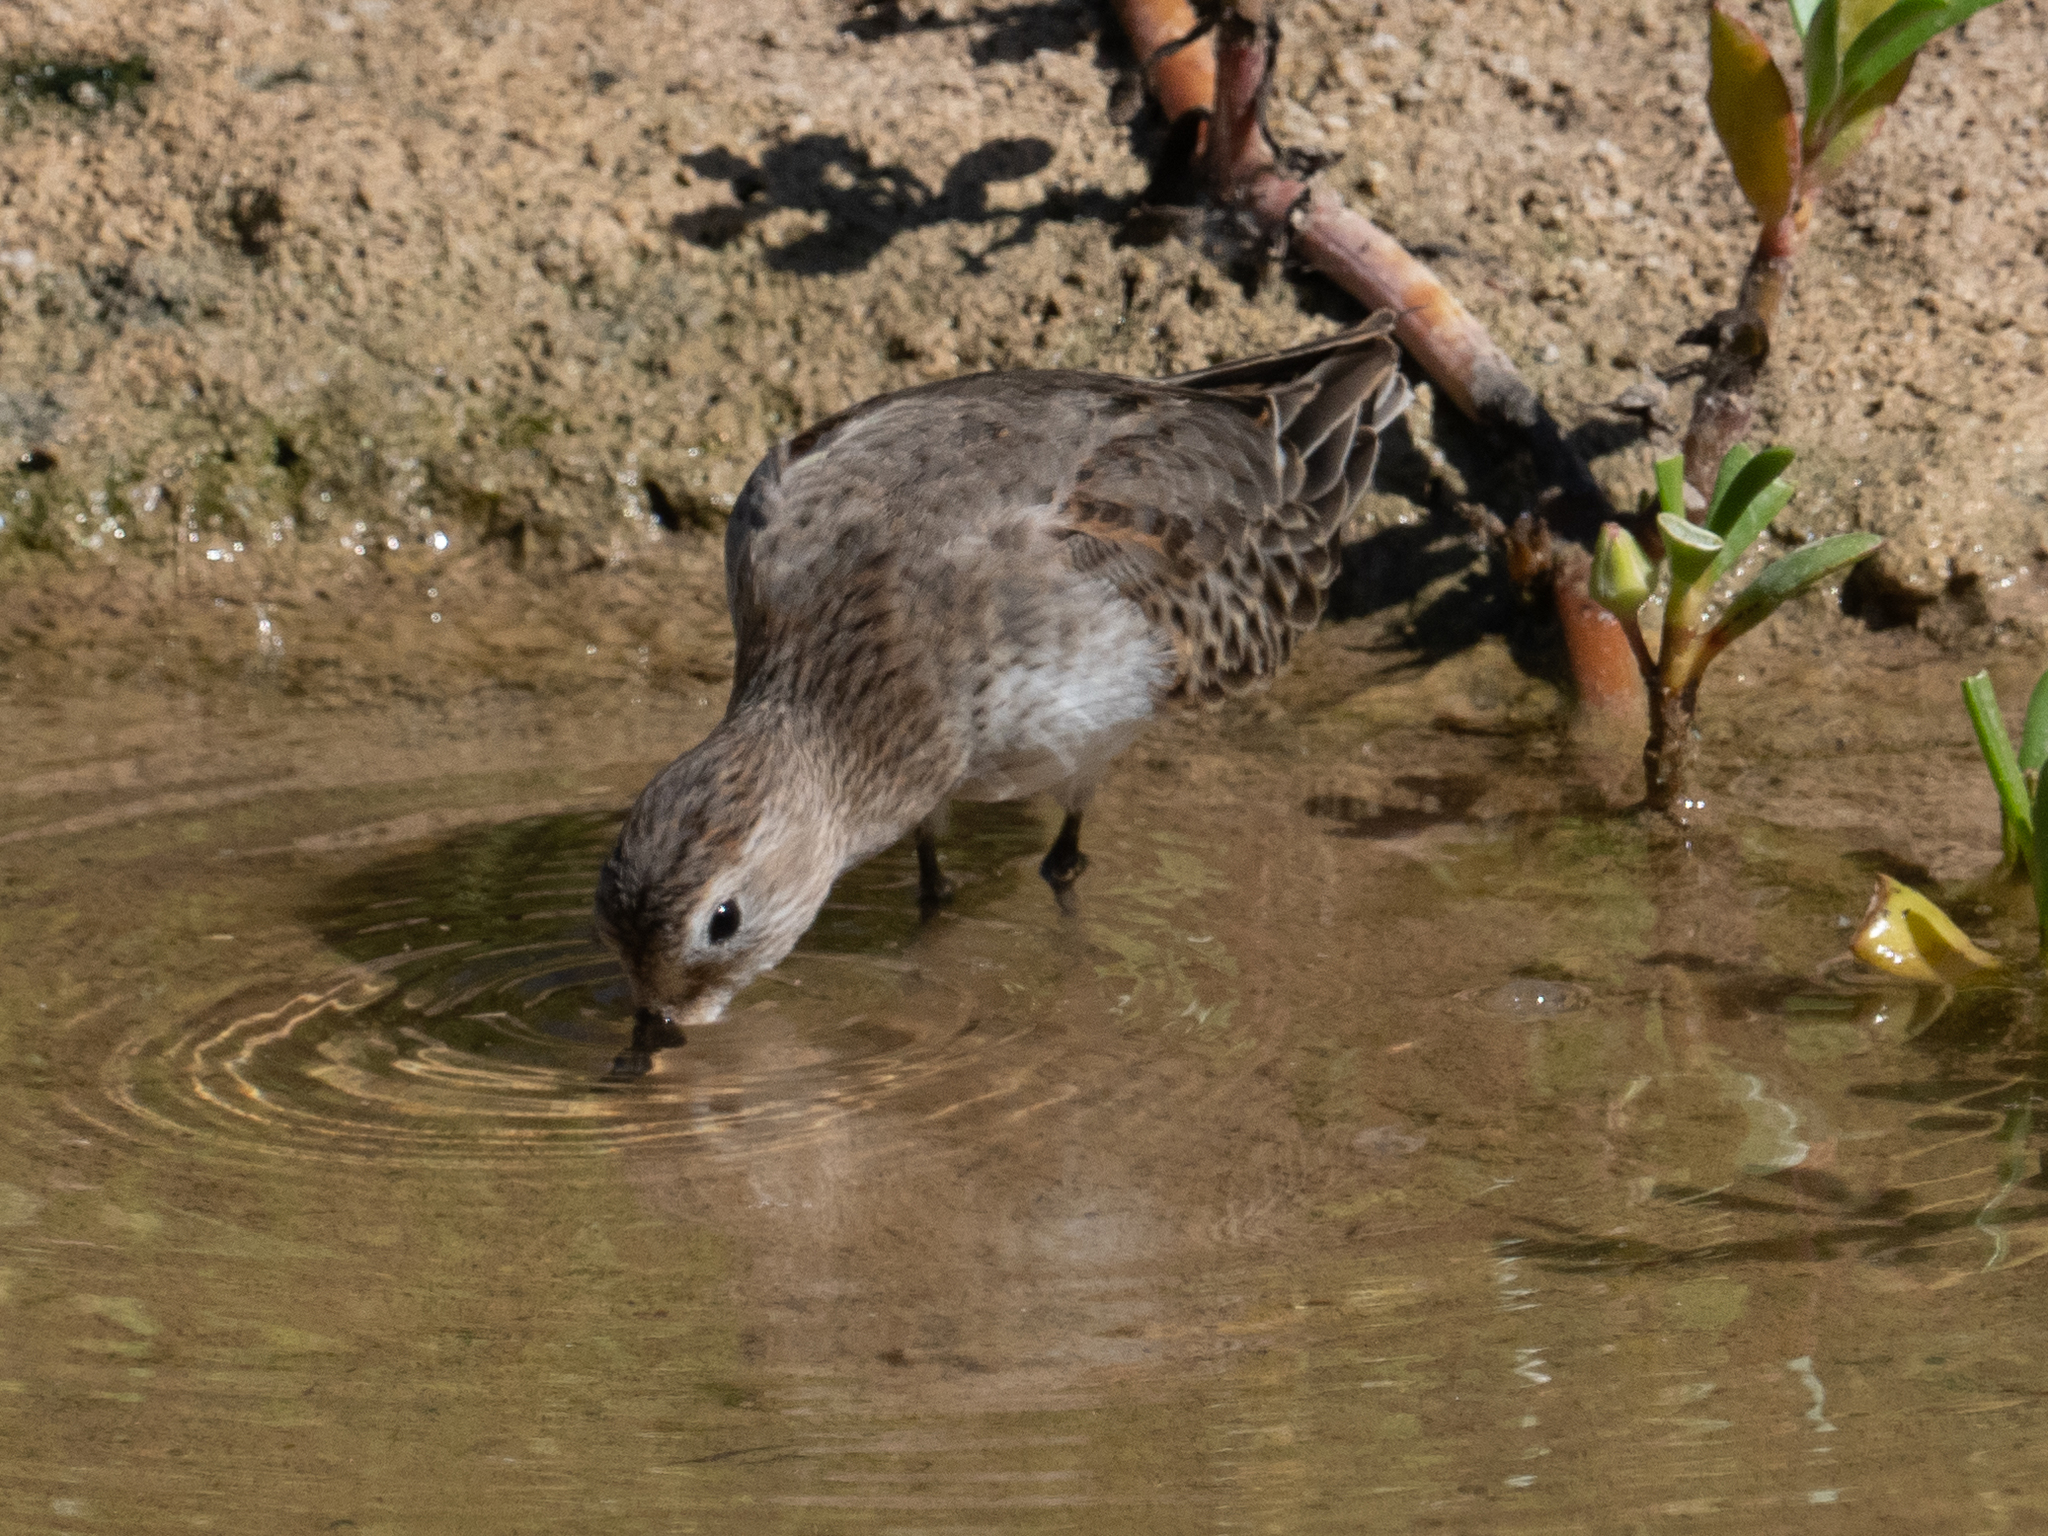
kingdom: Animalia
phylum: Chordata
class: Aves
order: Charadriiformes
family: Scolopacidae
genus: Calidris
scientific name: Calidris alpina
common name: Dunlin
